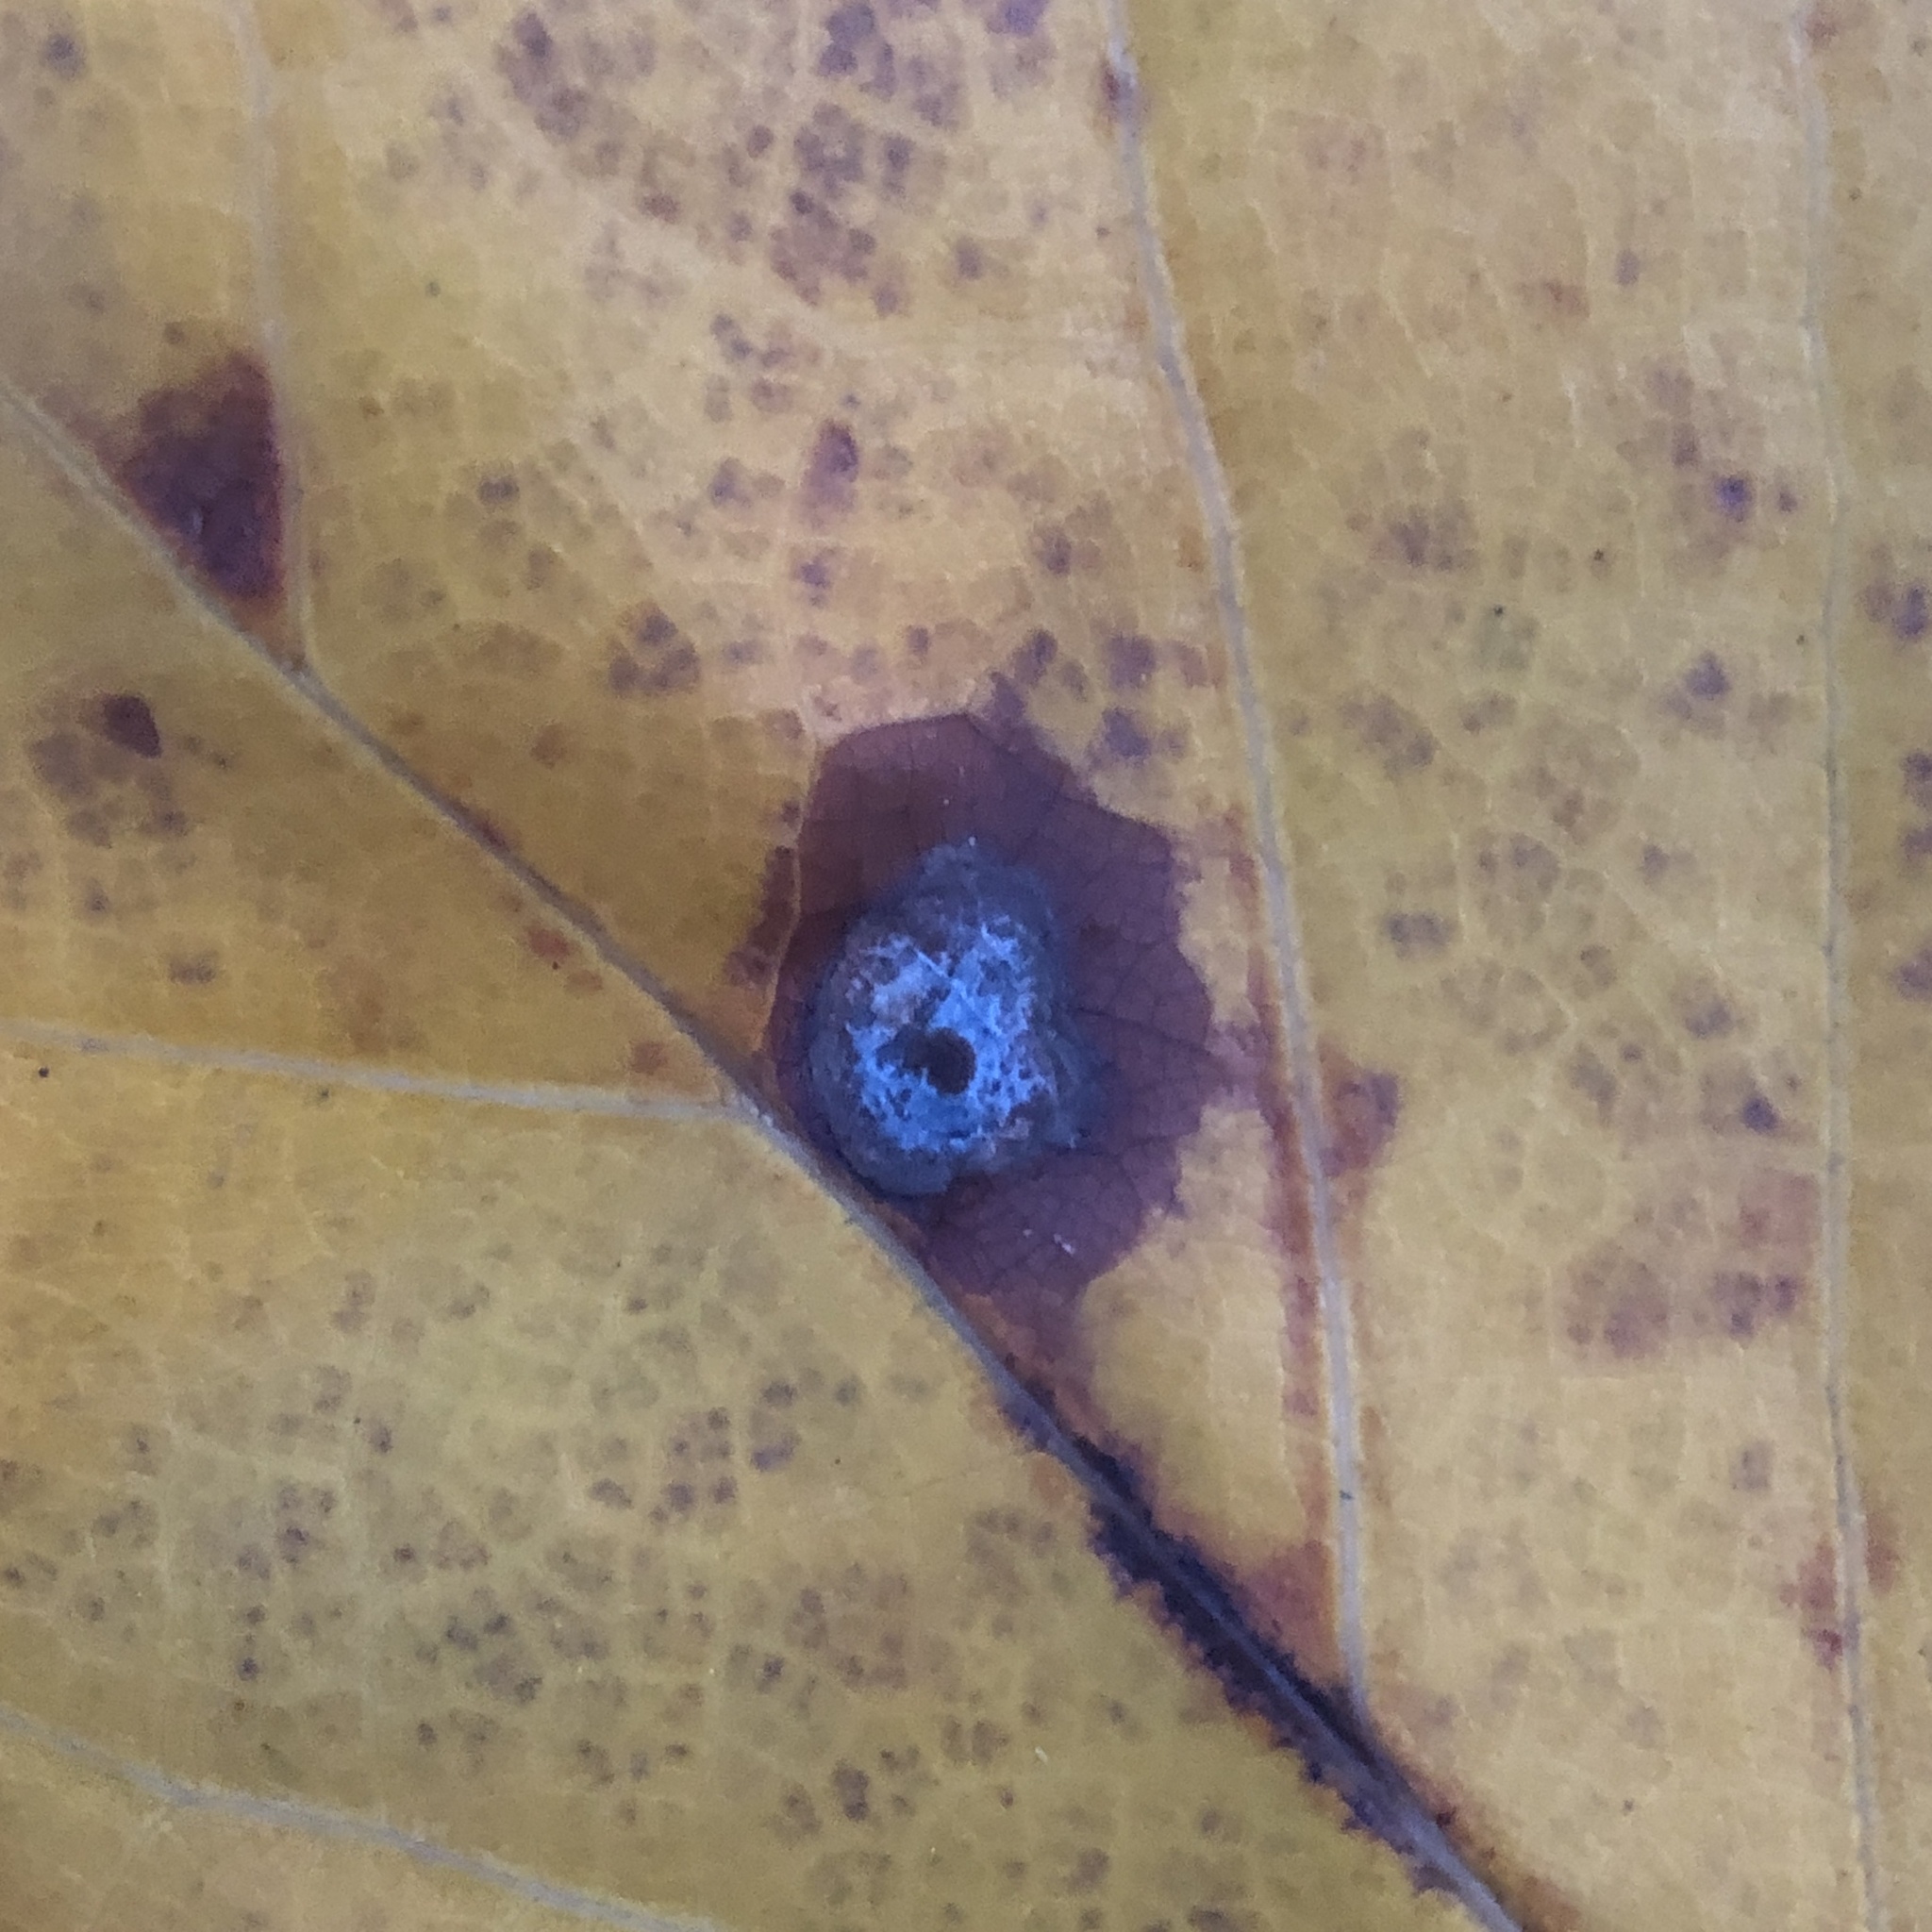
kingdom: Animalia
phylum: Arthropoda
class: Insecta
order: Diptera
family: Cecidomyiidae
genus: Resseliella
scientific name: Resseliella liriodendri
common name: Tulip tree leaf spot gall midge
